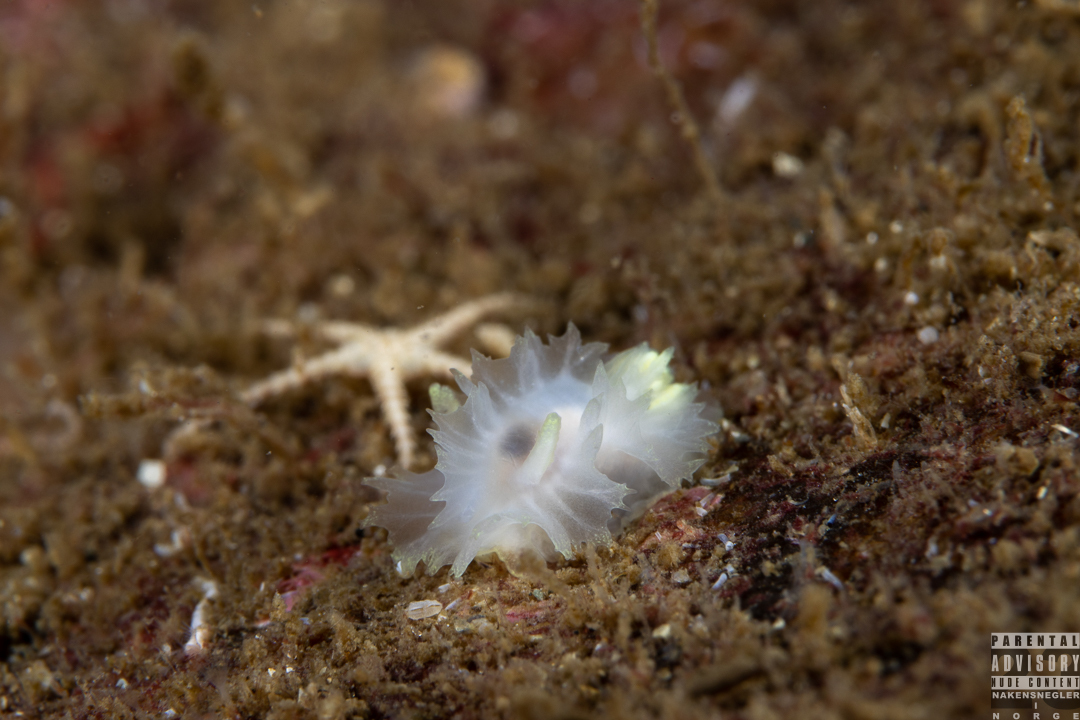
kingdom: Animalia
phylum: Mollusca
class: Gastropoda
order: Nudibranchia
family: Goniodorididae
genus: Lophodoris
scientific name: Lophodoris danielsseni
